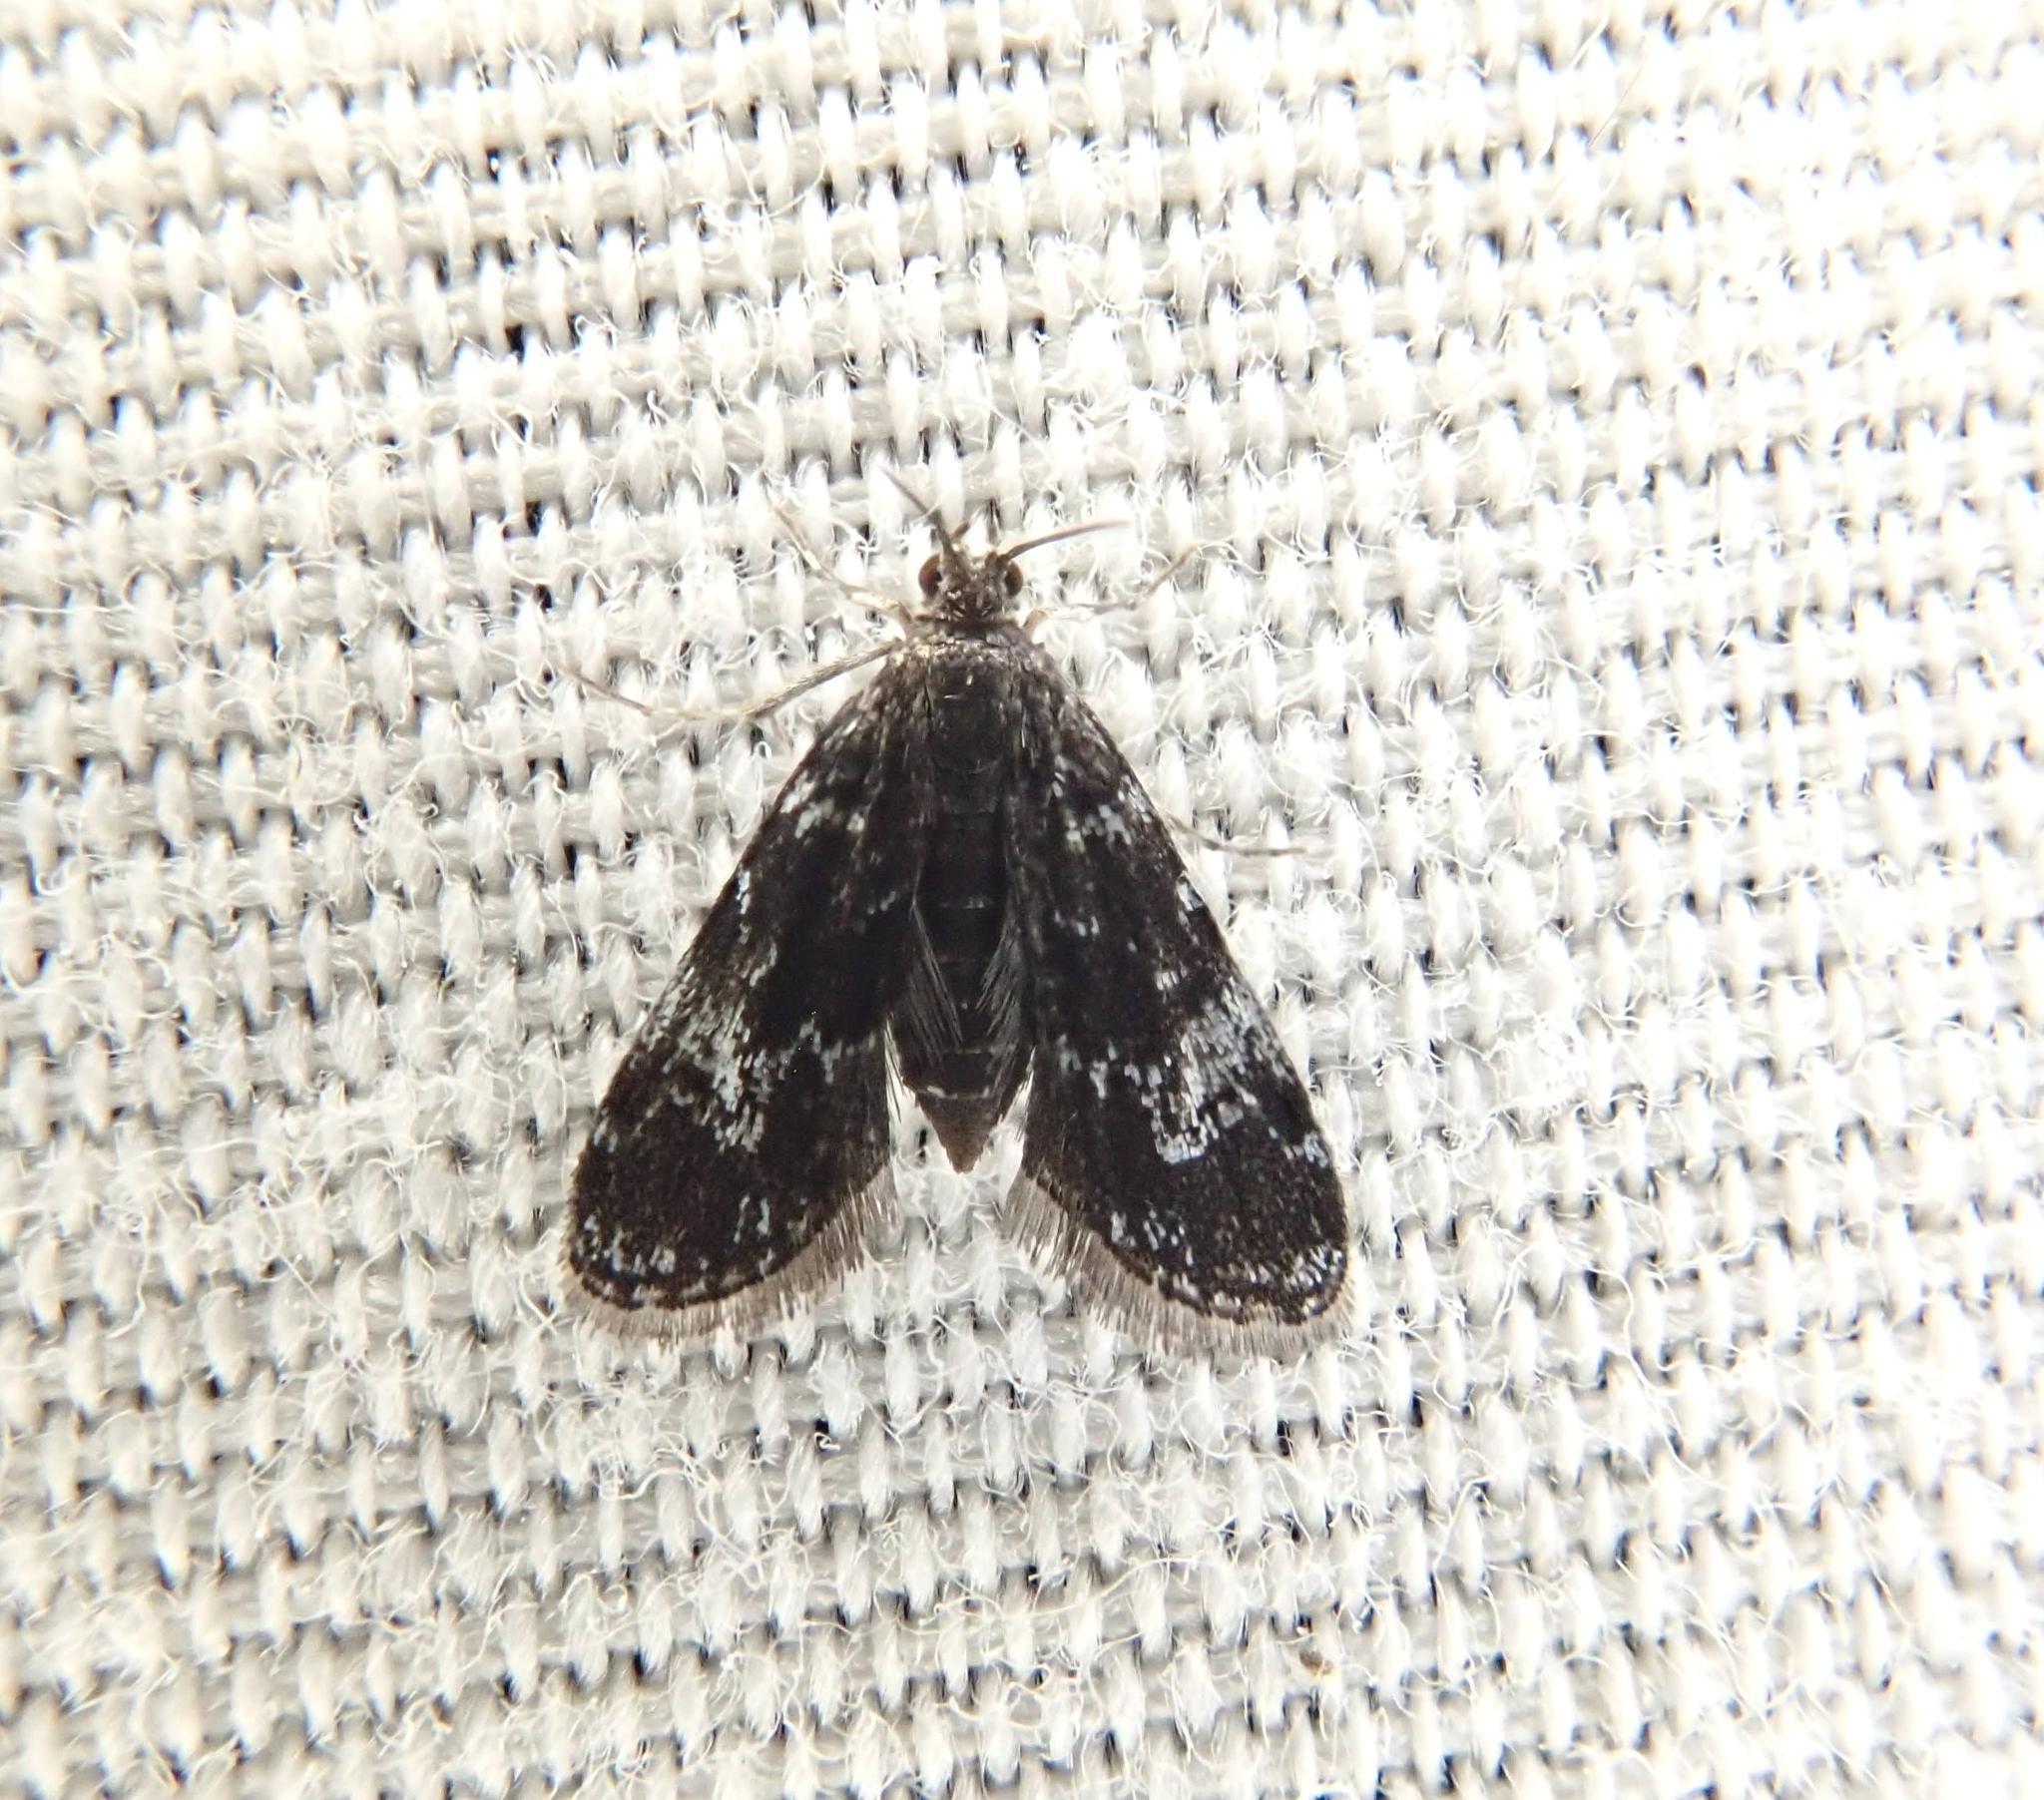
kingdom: Animalia
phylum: Arthropoda
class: Insecta
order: Lepidoptera
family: Crambidae
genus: Elophila
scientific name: Elophila tinealis
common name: Black duckweed moth
